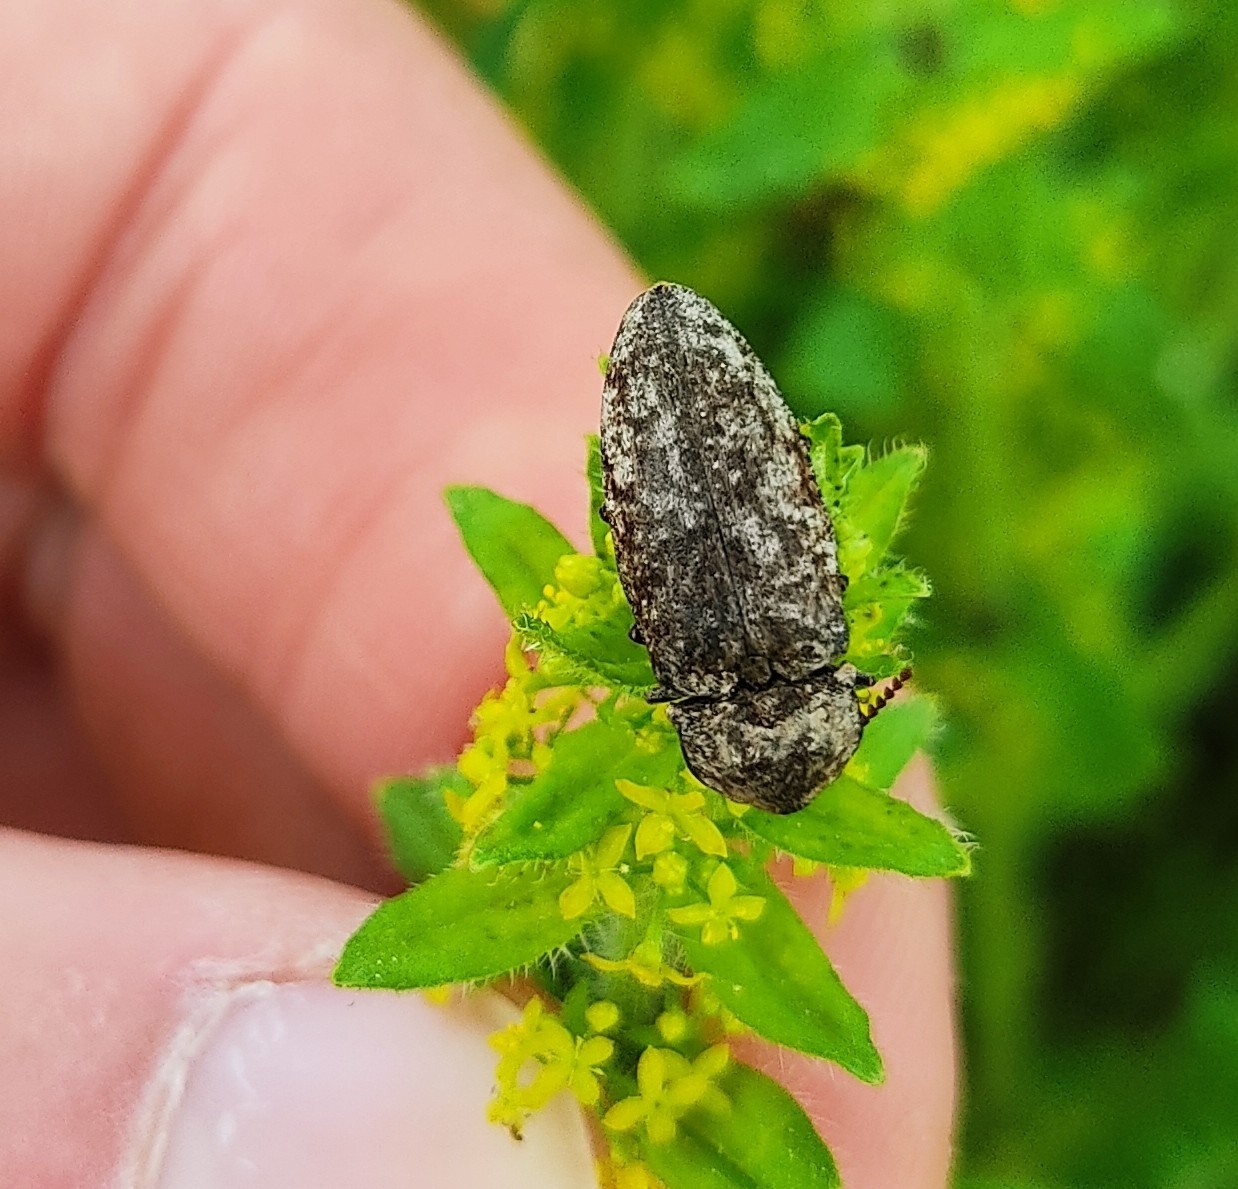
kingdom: Animalia
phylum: Arthropoda
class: Insecta
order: Coleoptera
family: Elateridae
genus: Agrypnus
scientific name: Agrypnus murinus
